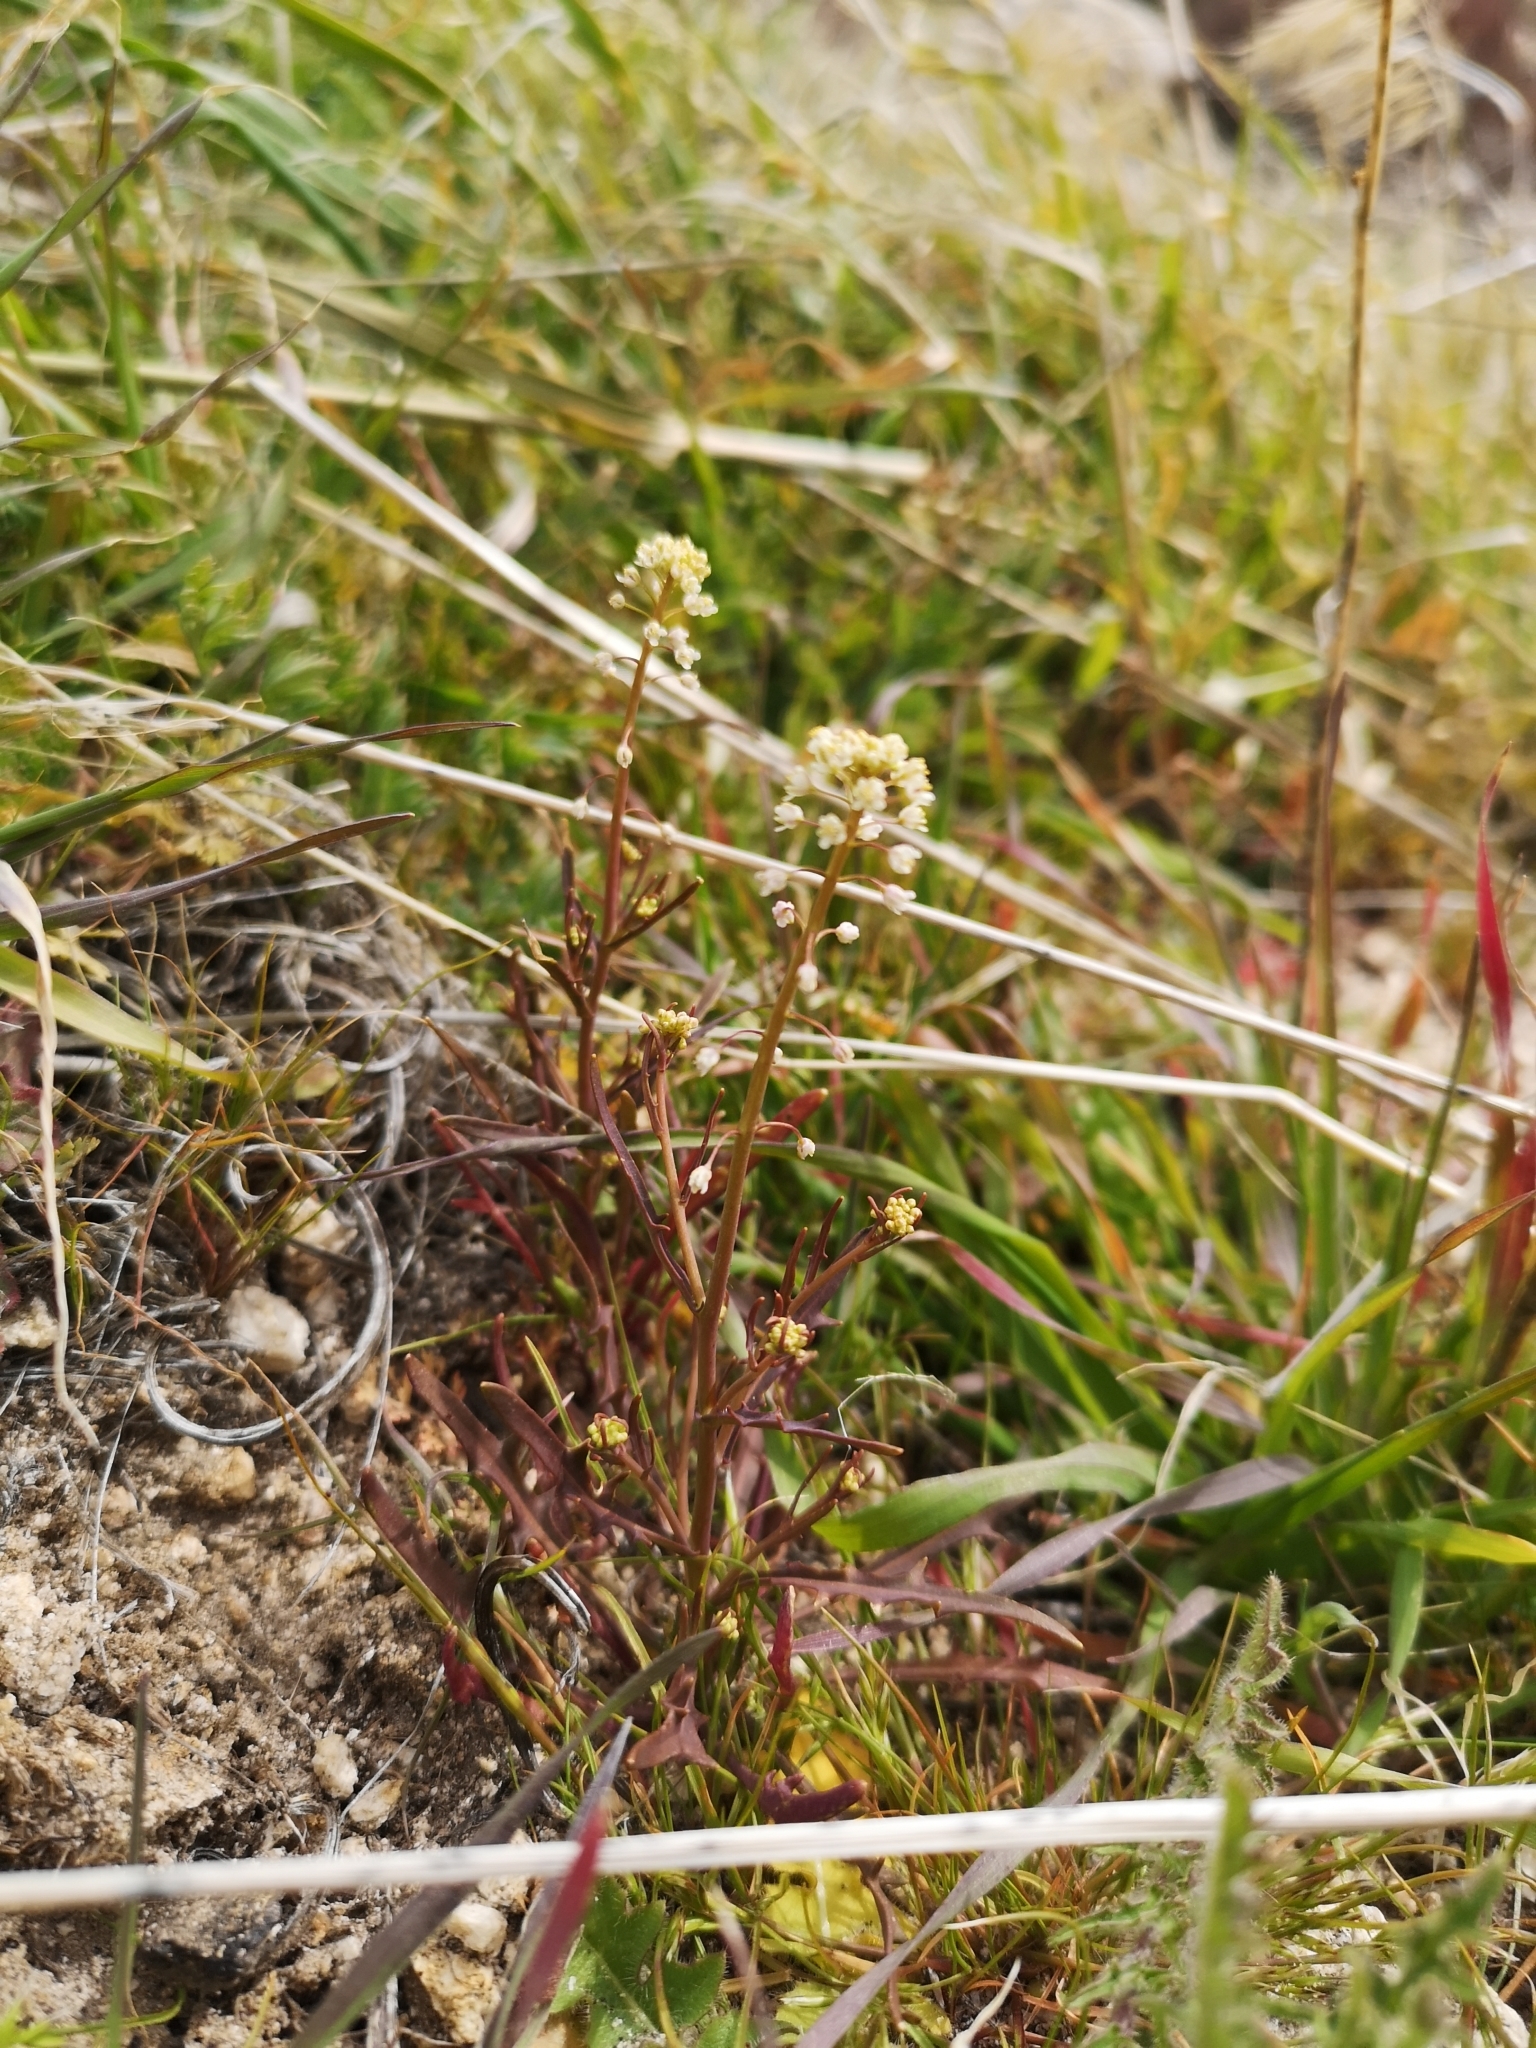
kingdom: Plantae
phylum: Tracheophyta
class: Magnoliopsida
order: Brassicales
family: Brassicaceae
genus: Thysanocarpus
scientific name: Thysanocarpus desertorum
